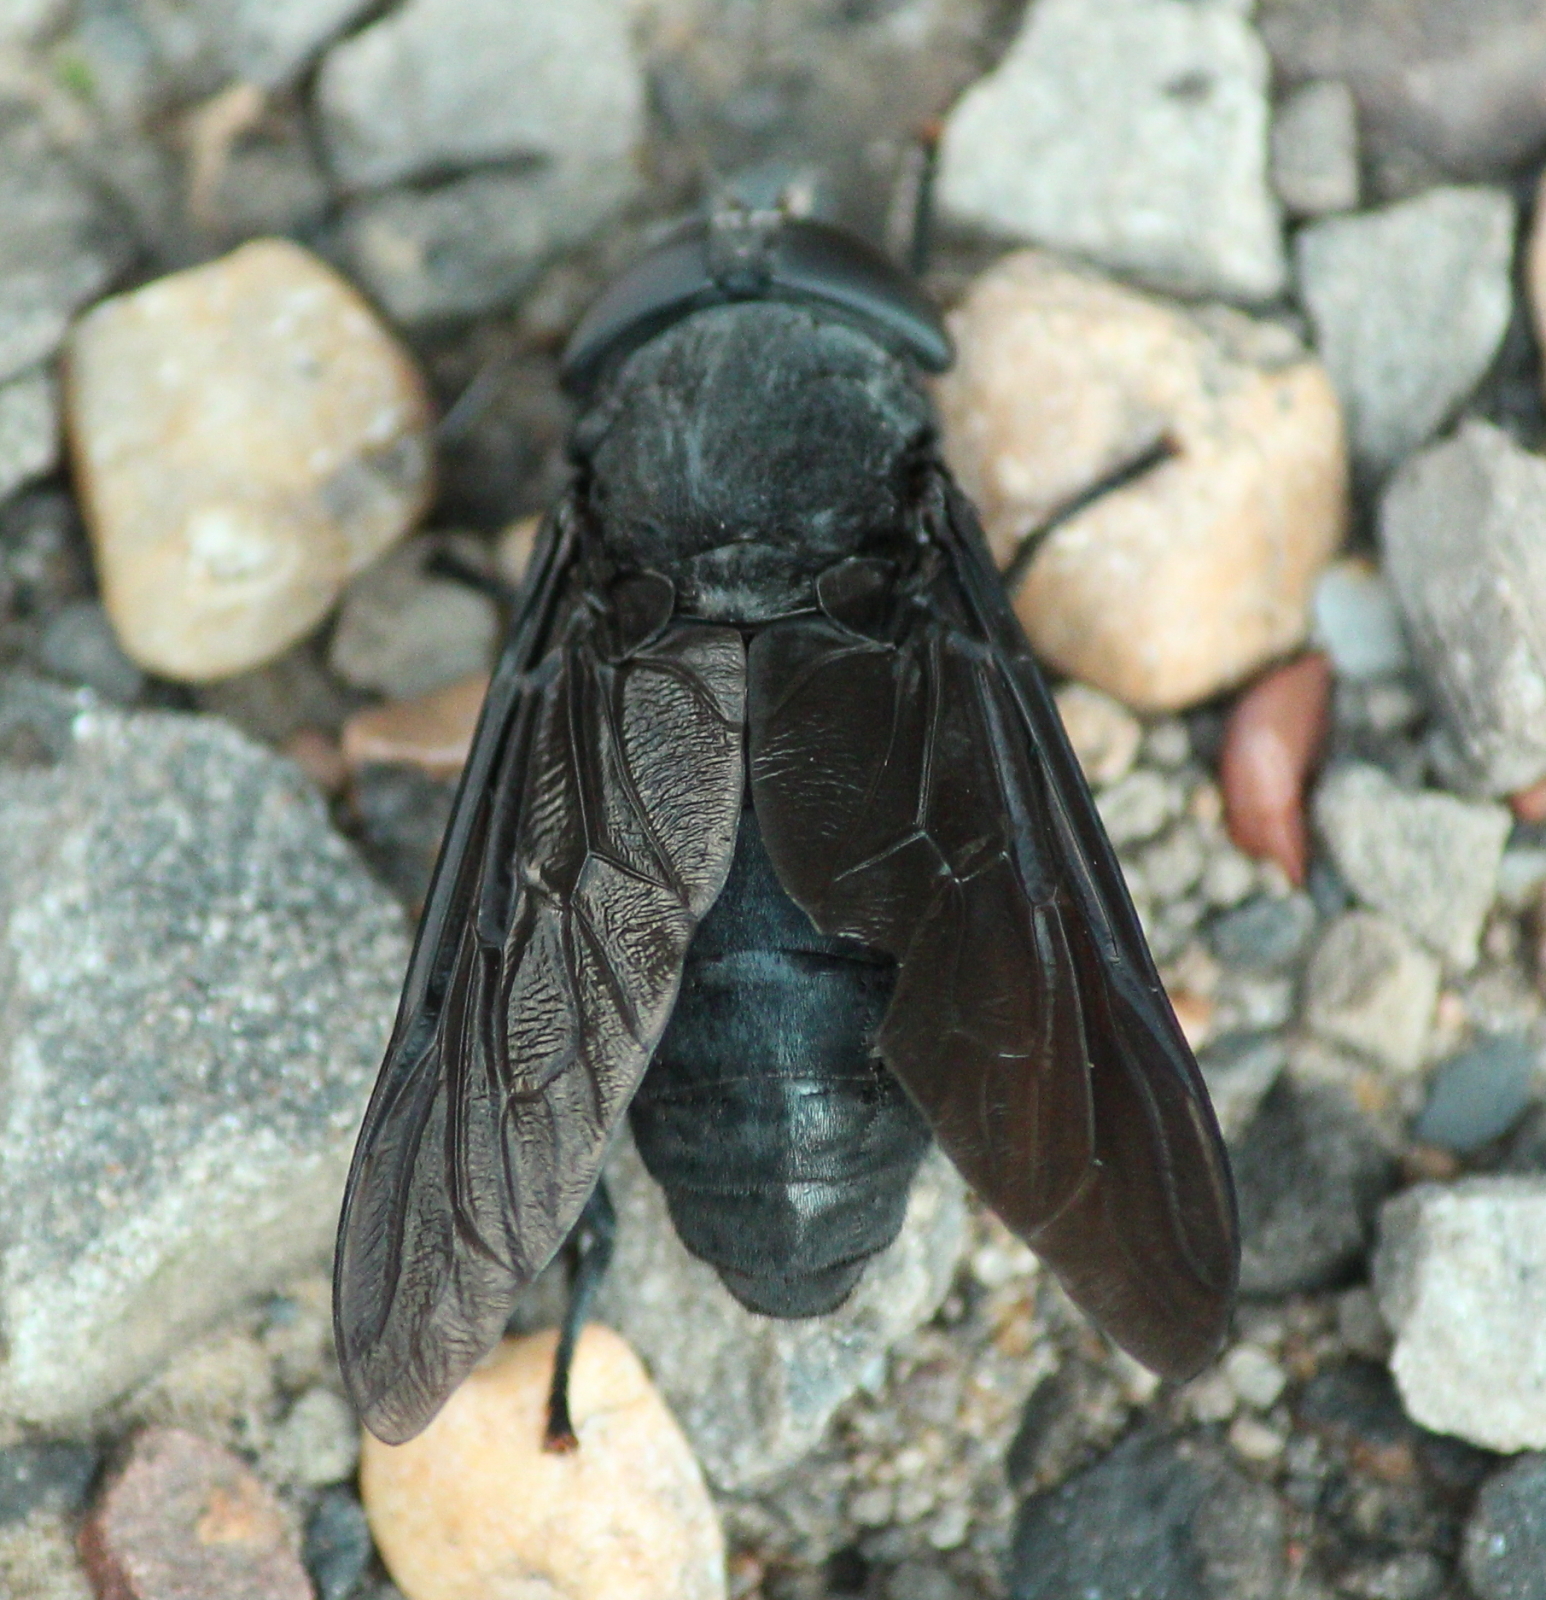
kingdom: Animalia
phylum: Arthropoda
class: Insecta
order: Diptera
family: Tabanidae
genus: Tabanus
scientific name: Tabanus atratus
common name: Black horse fly
